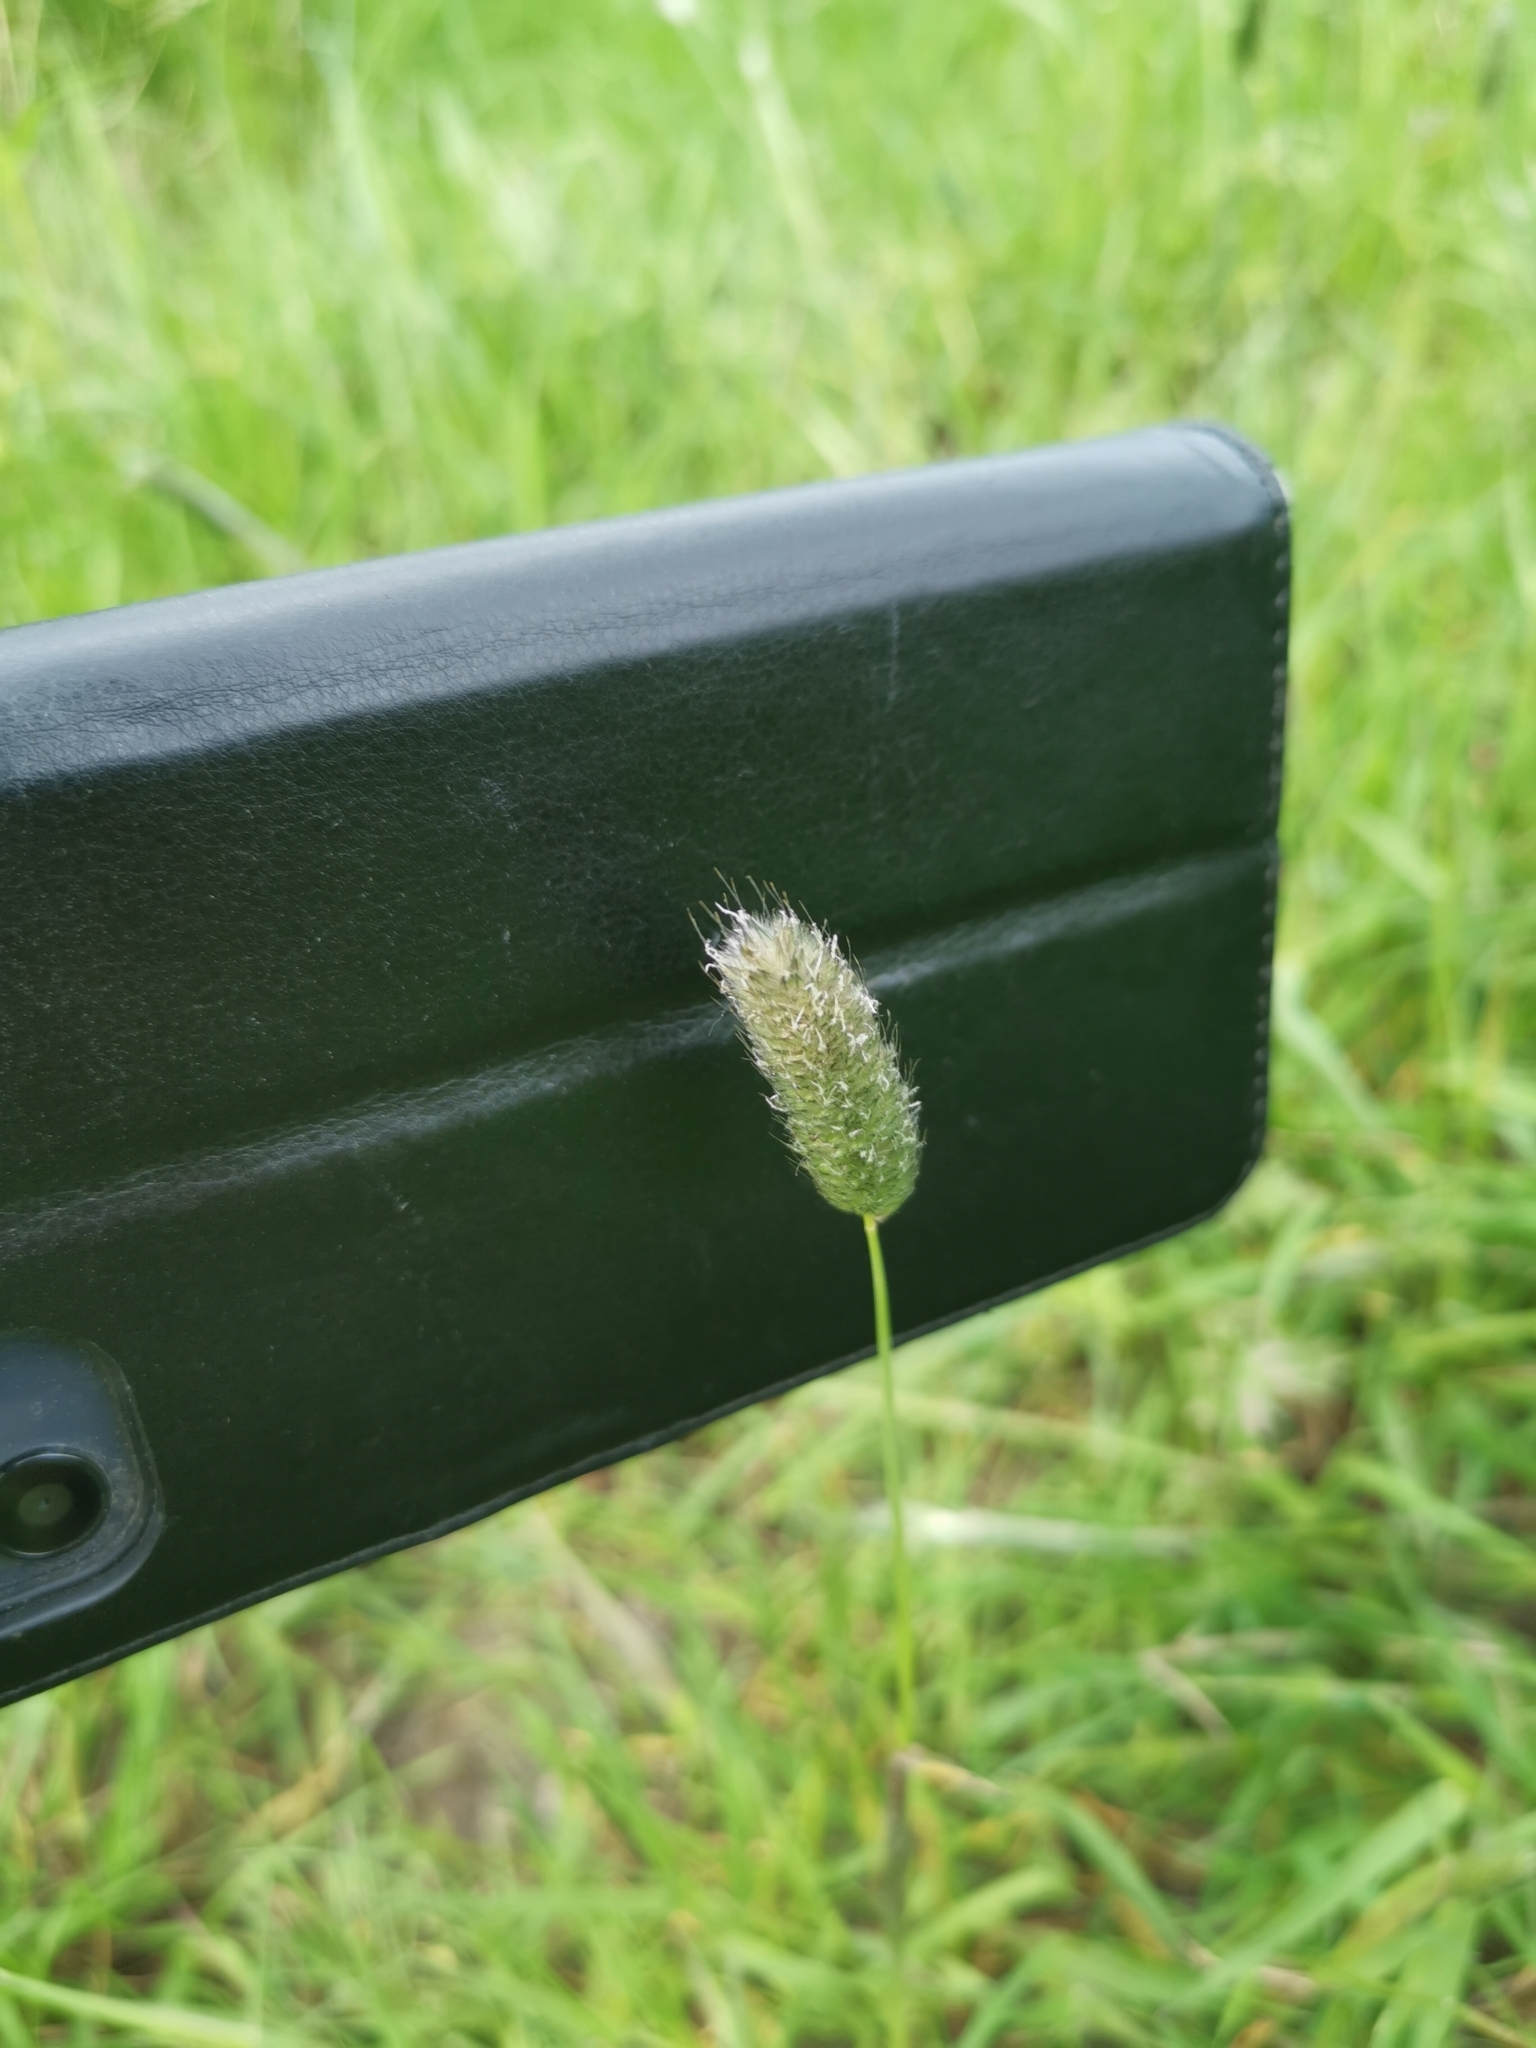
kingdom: Plantae
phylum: Tracheophyta
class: Liliopsida
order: Poales
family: Poaceae
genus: Alopecurus
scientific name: Alopecurus pratensis
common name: Meadow foxtail
